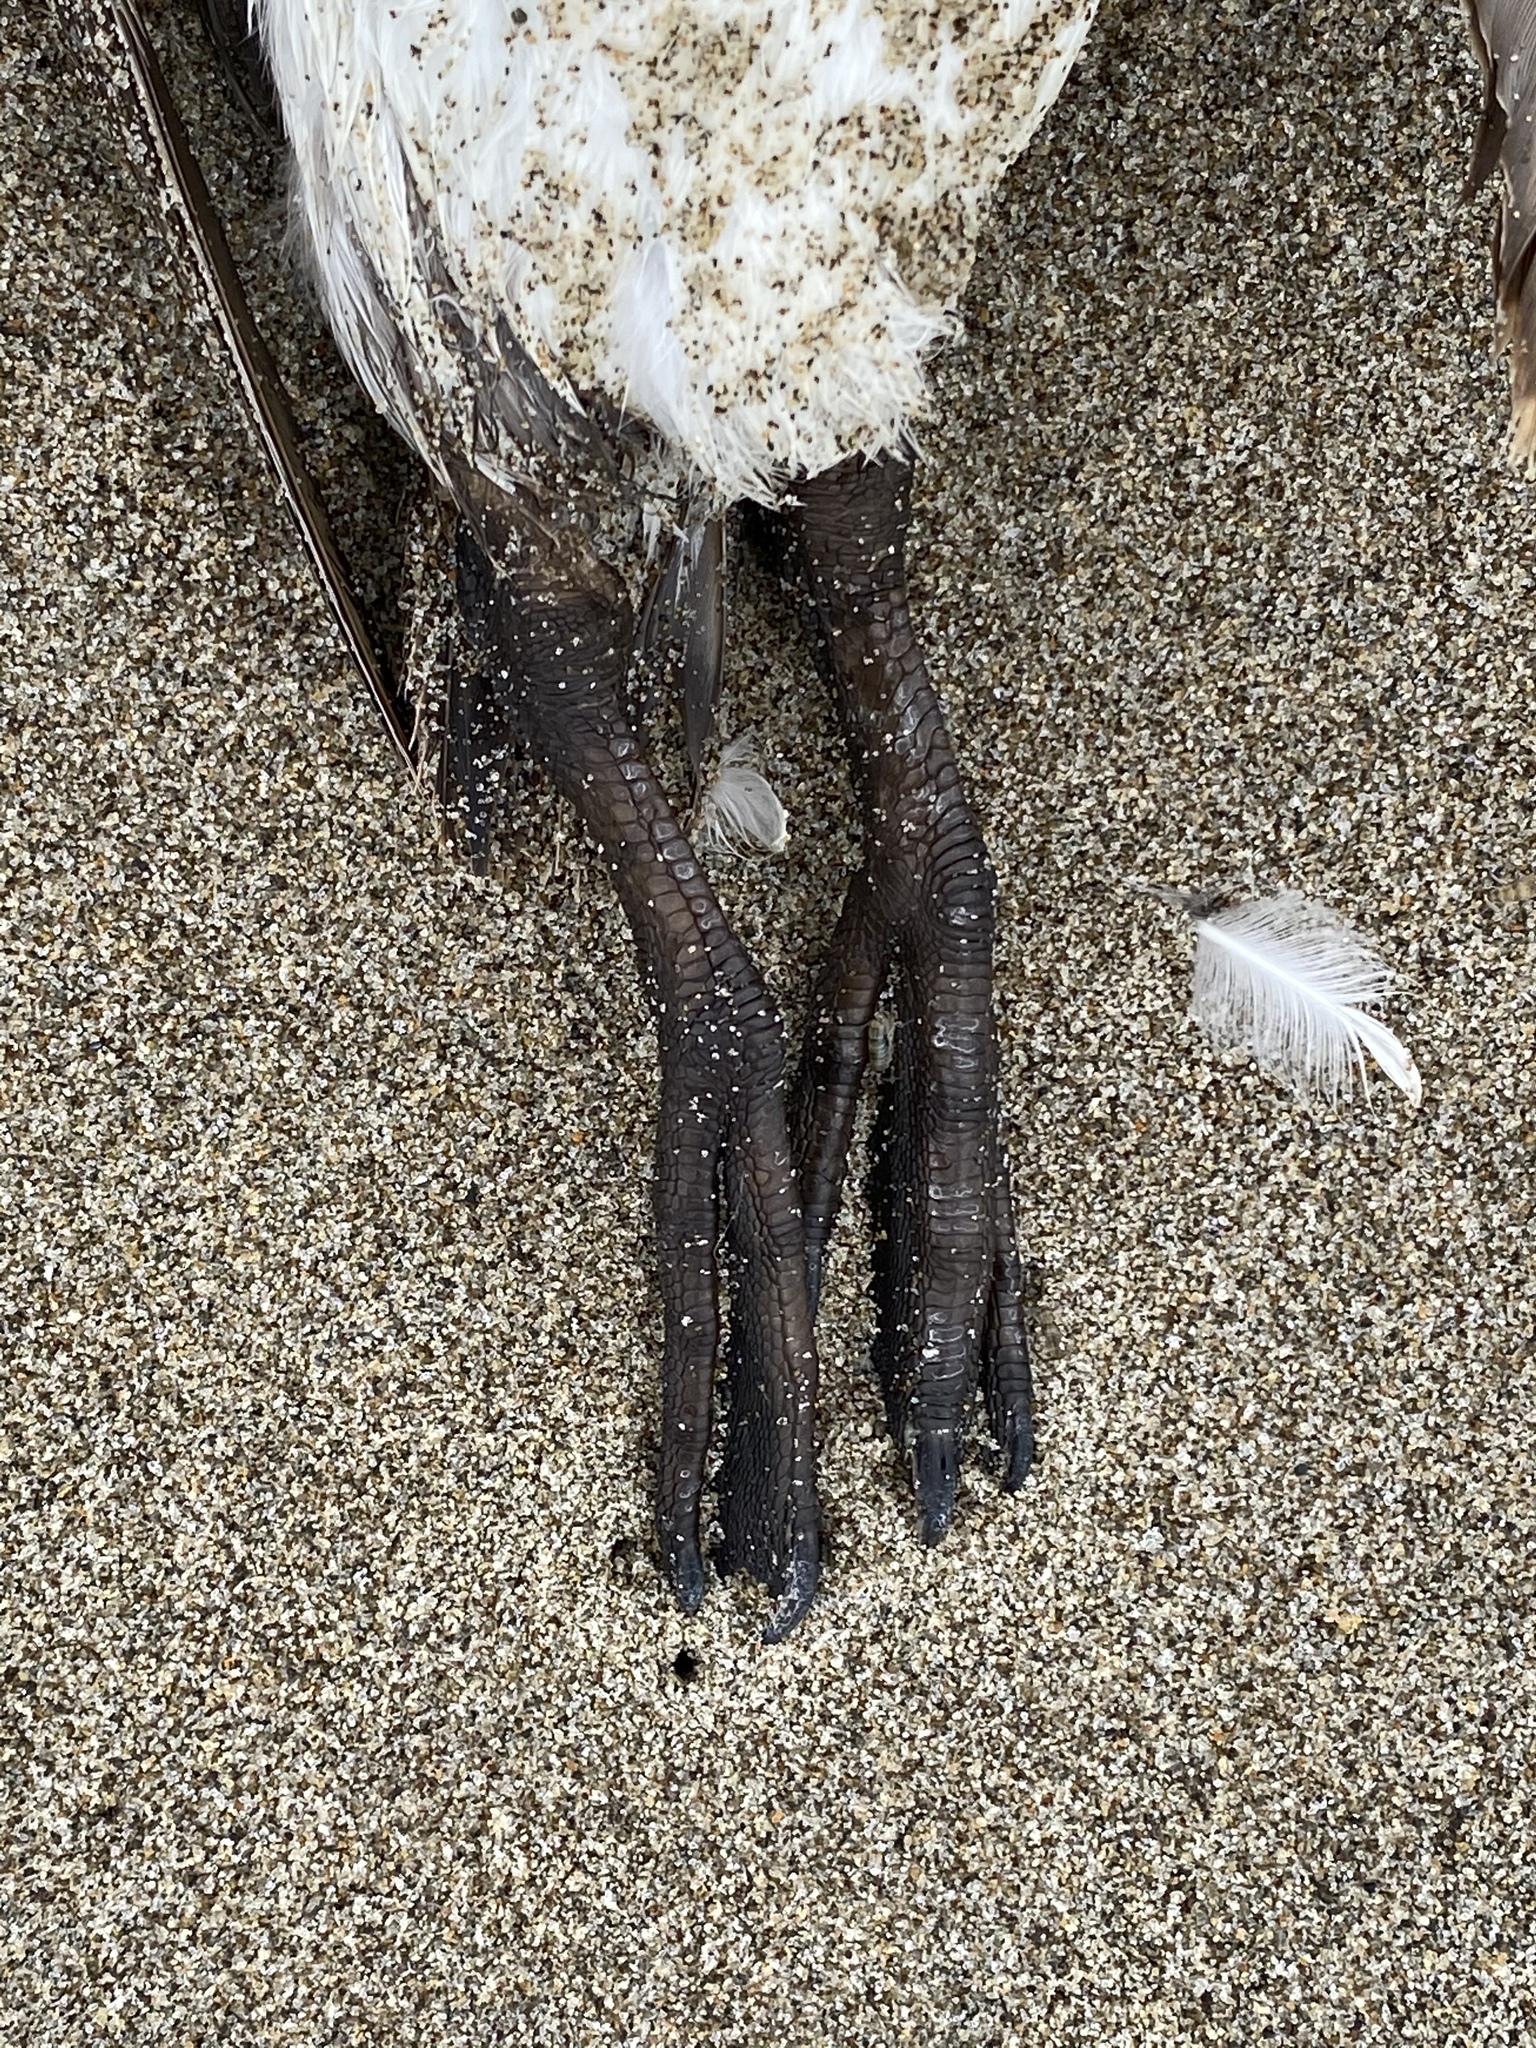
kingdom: Animalia
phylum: Chordata
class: Aves
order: Charadriiformes
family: Alcidae
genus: Uria
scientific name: Uria aalge
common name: Common murre
